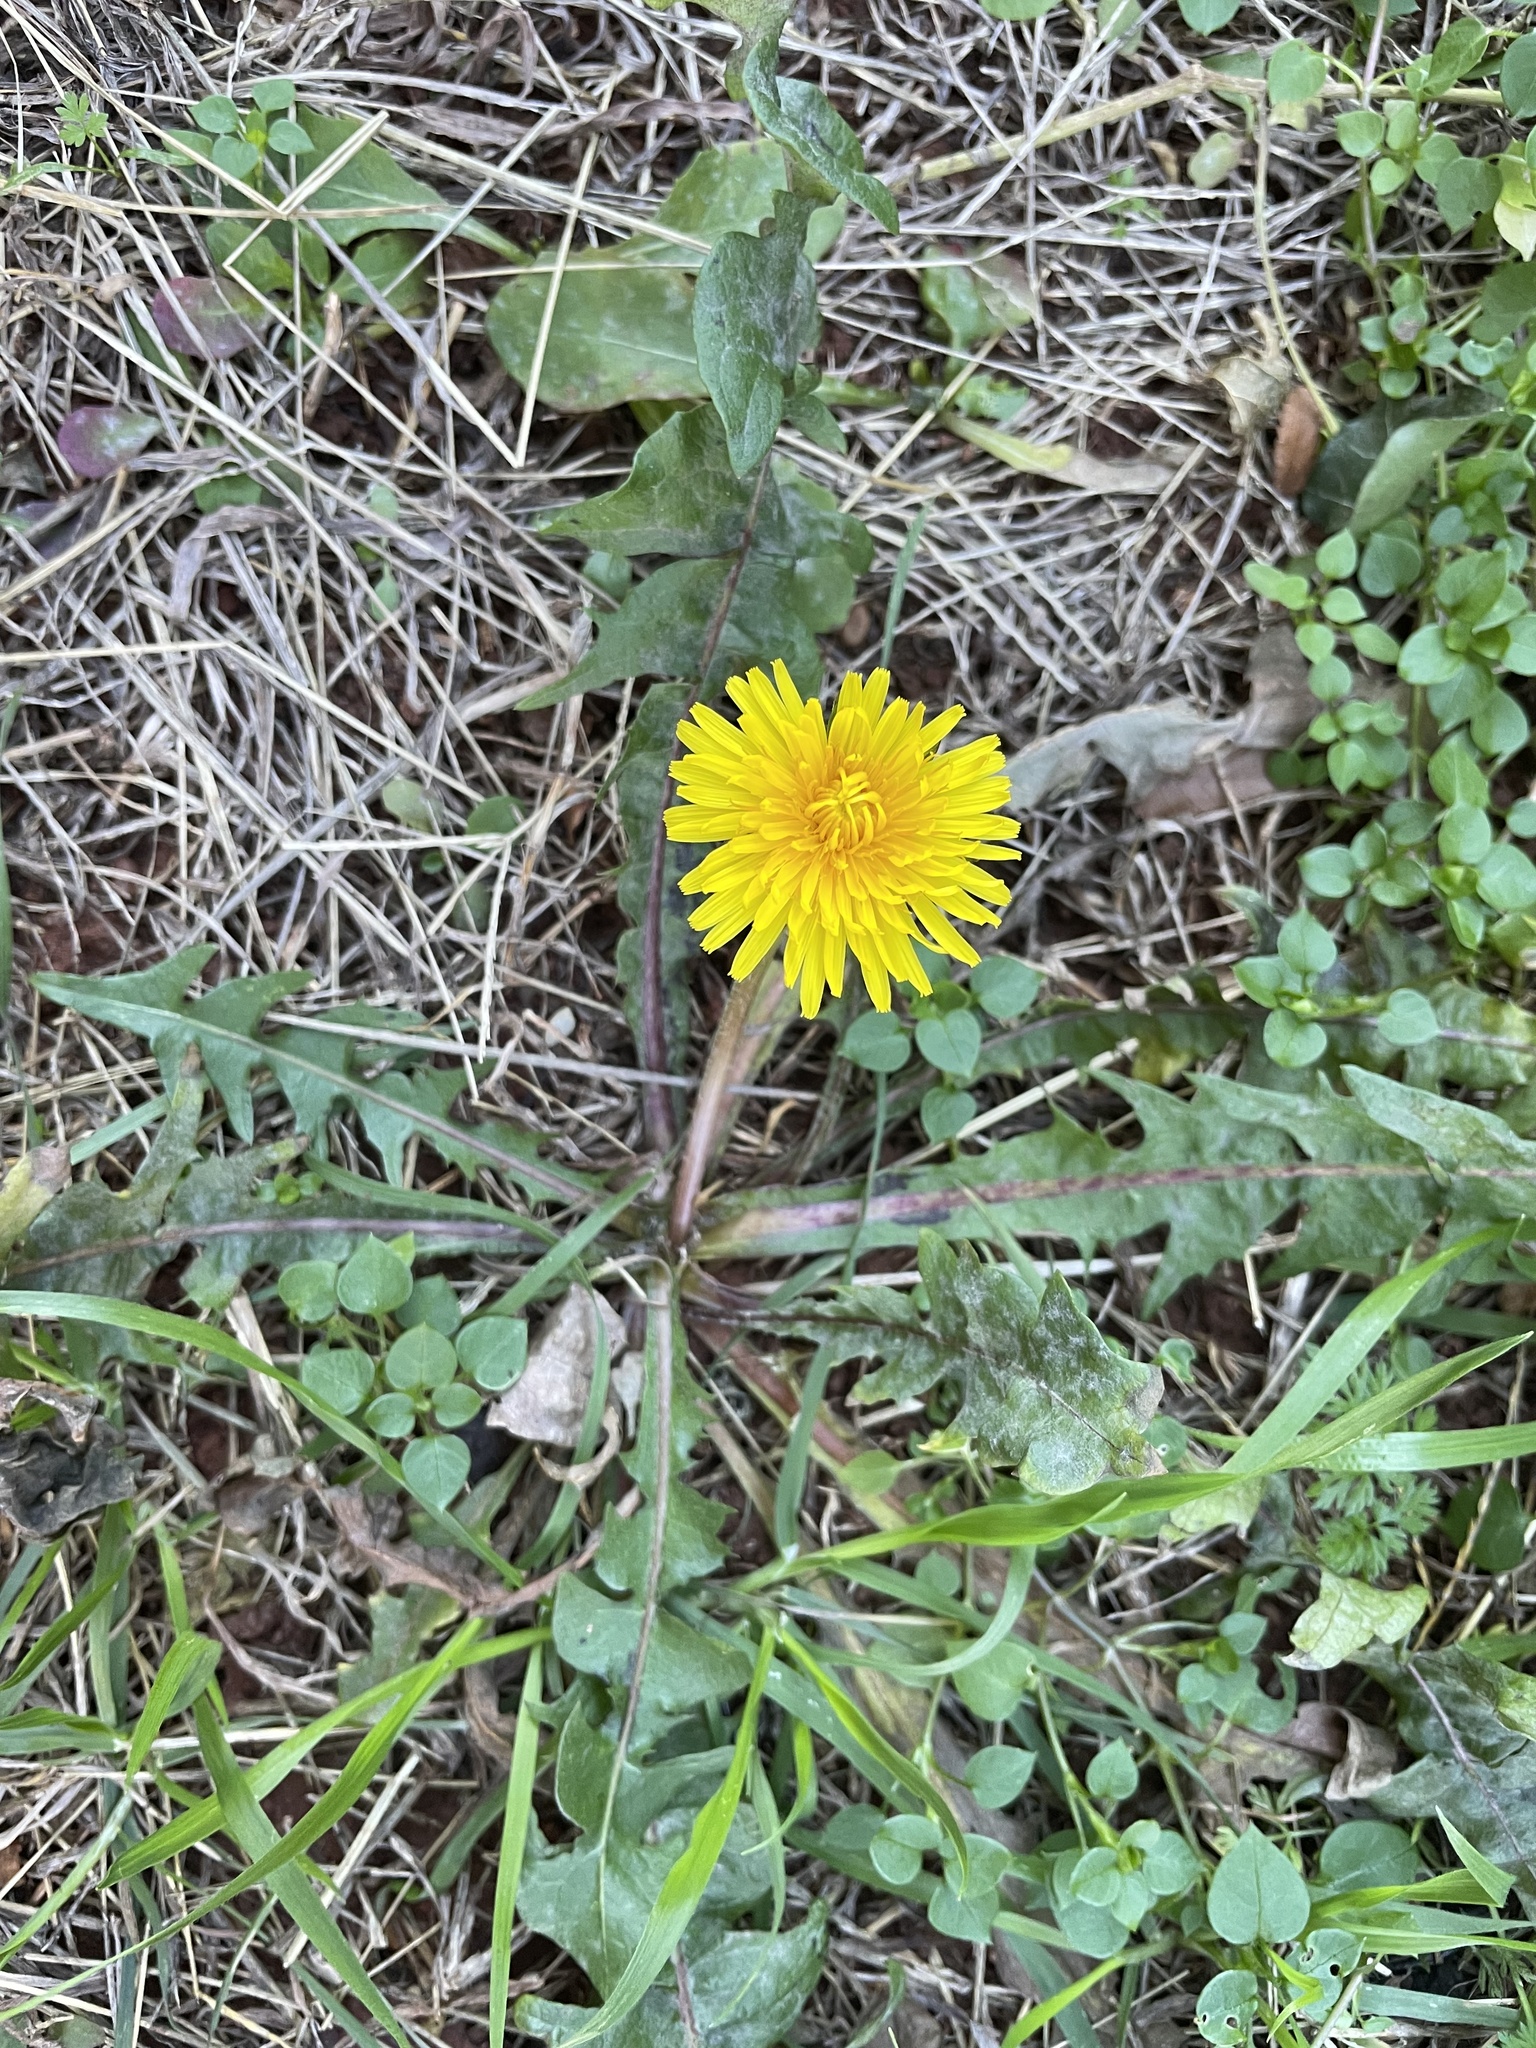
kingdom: Plantae
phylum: Tracheophyta
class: Magnoliopsida
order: Asterales
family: Asteraceae
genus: Taraxacum
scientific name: Taraxacum officinale
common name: Common dandelion
